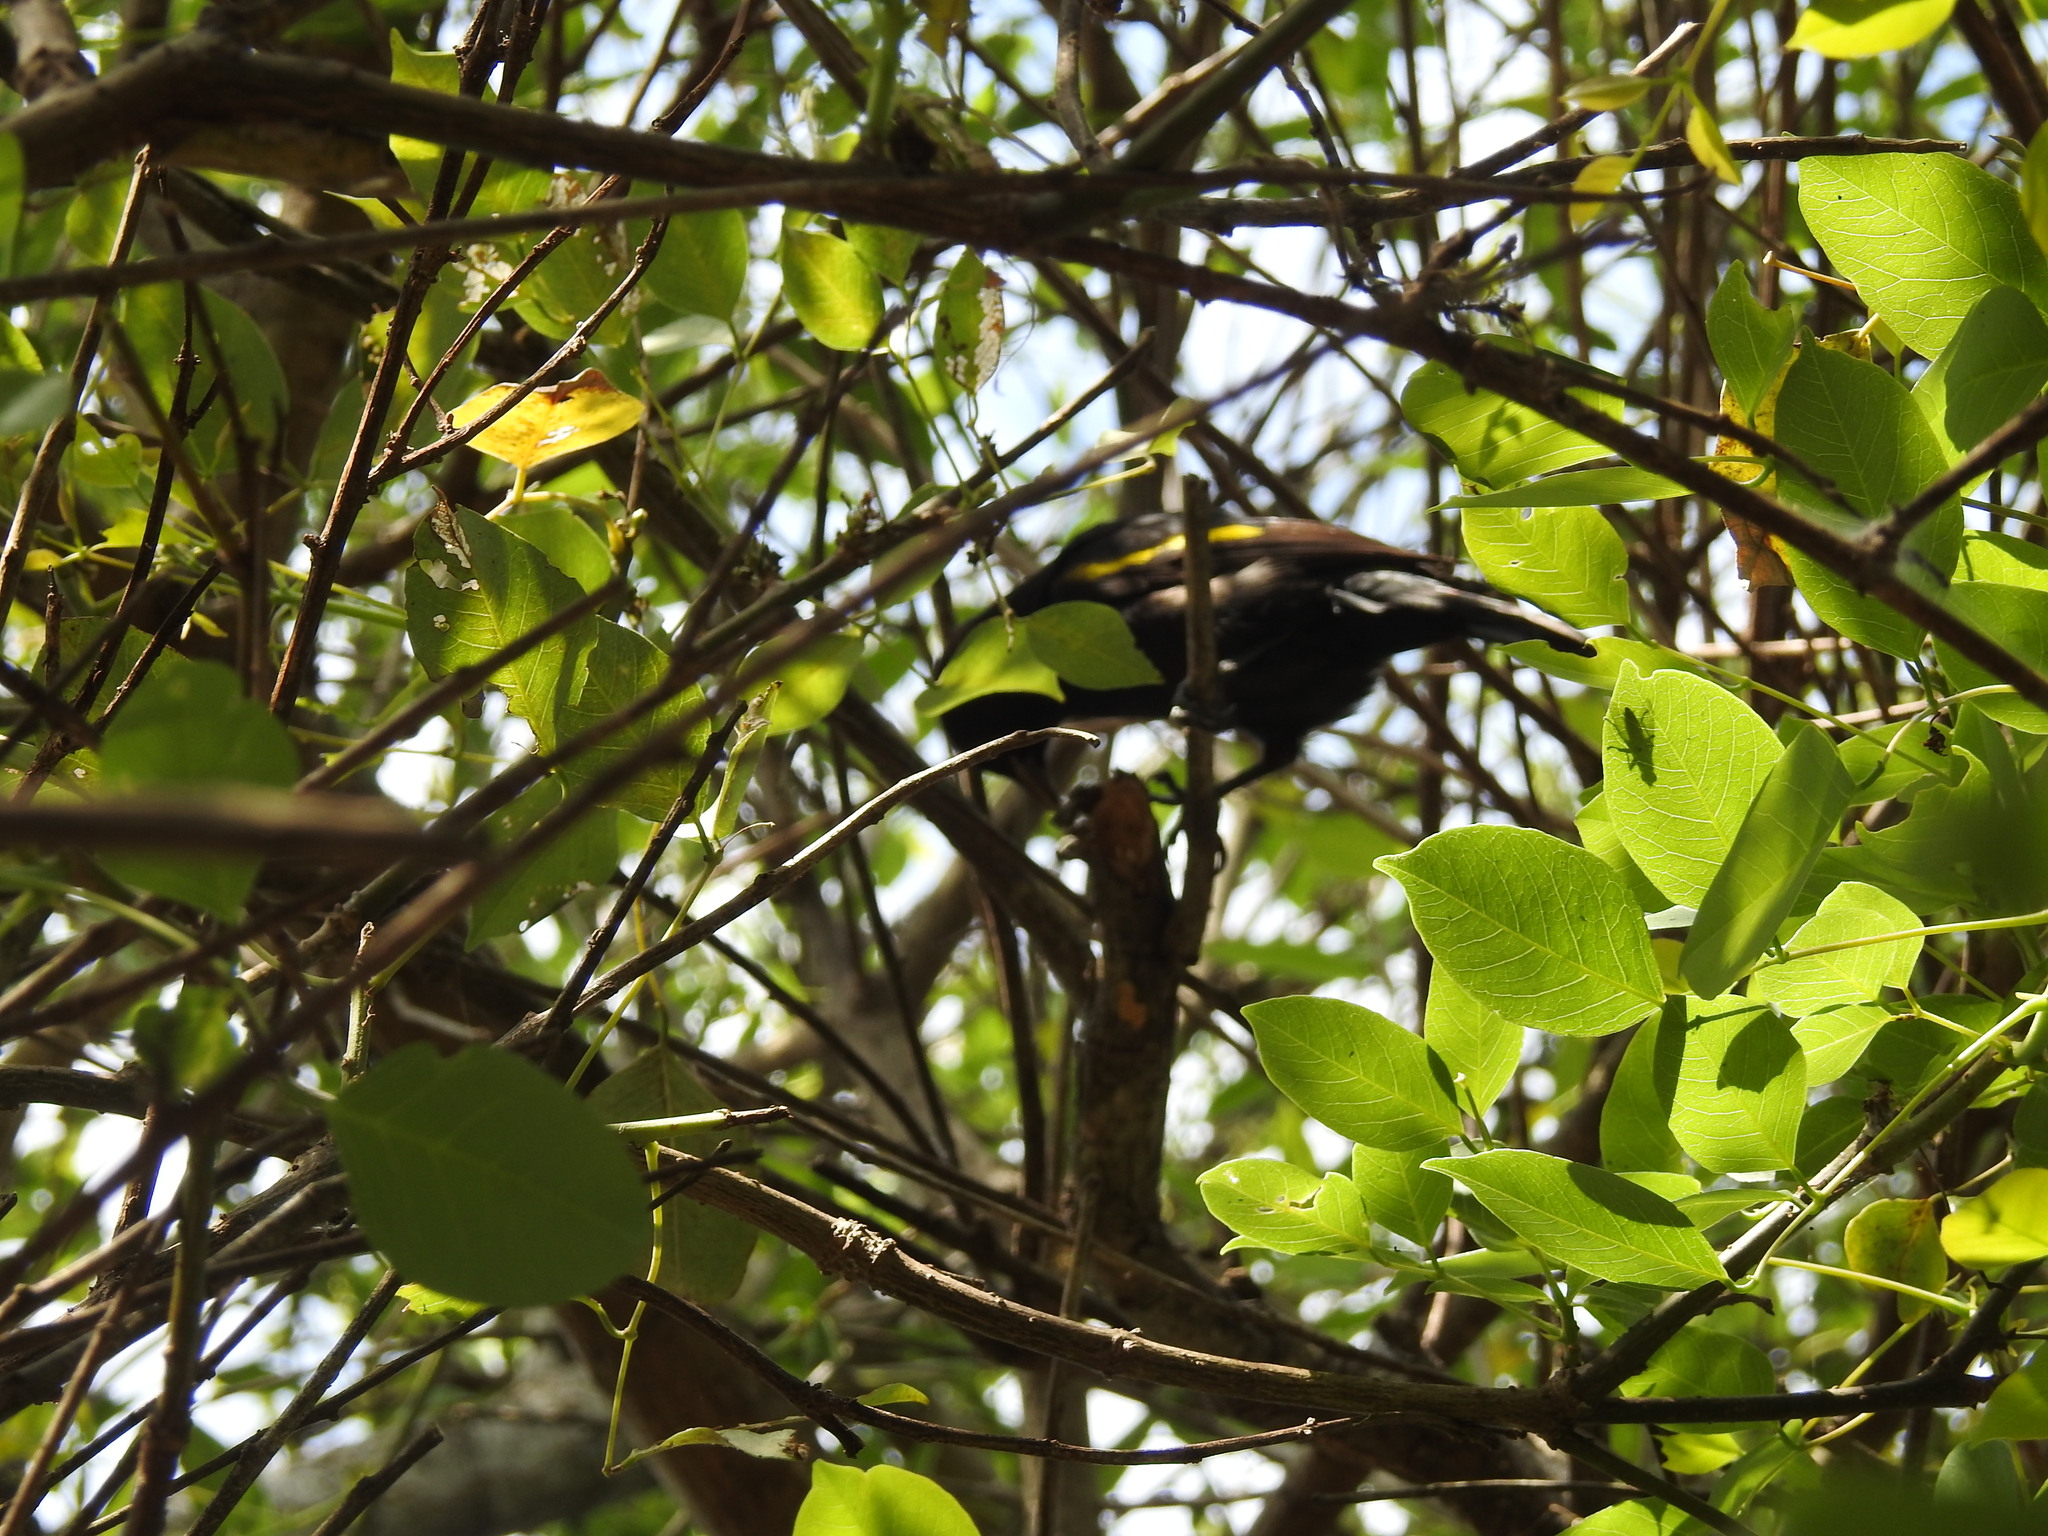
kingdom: Animalia
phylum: Chordata
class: Aves
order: Passeriformes
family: Icteridae
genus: Cacicus
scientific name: Cacicus chrysopterus
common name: Golden-winged cacique
